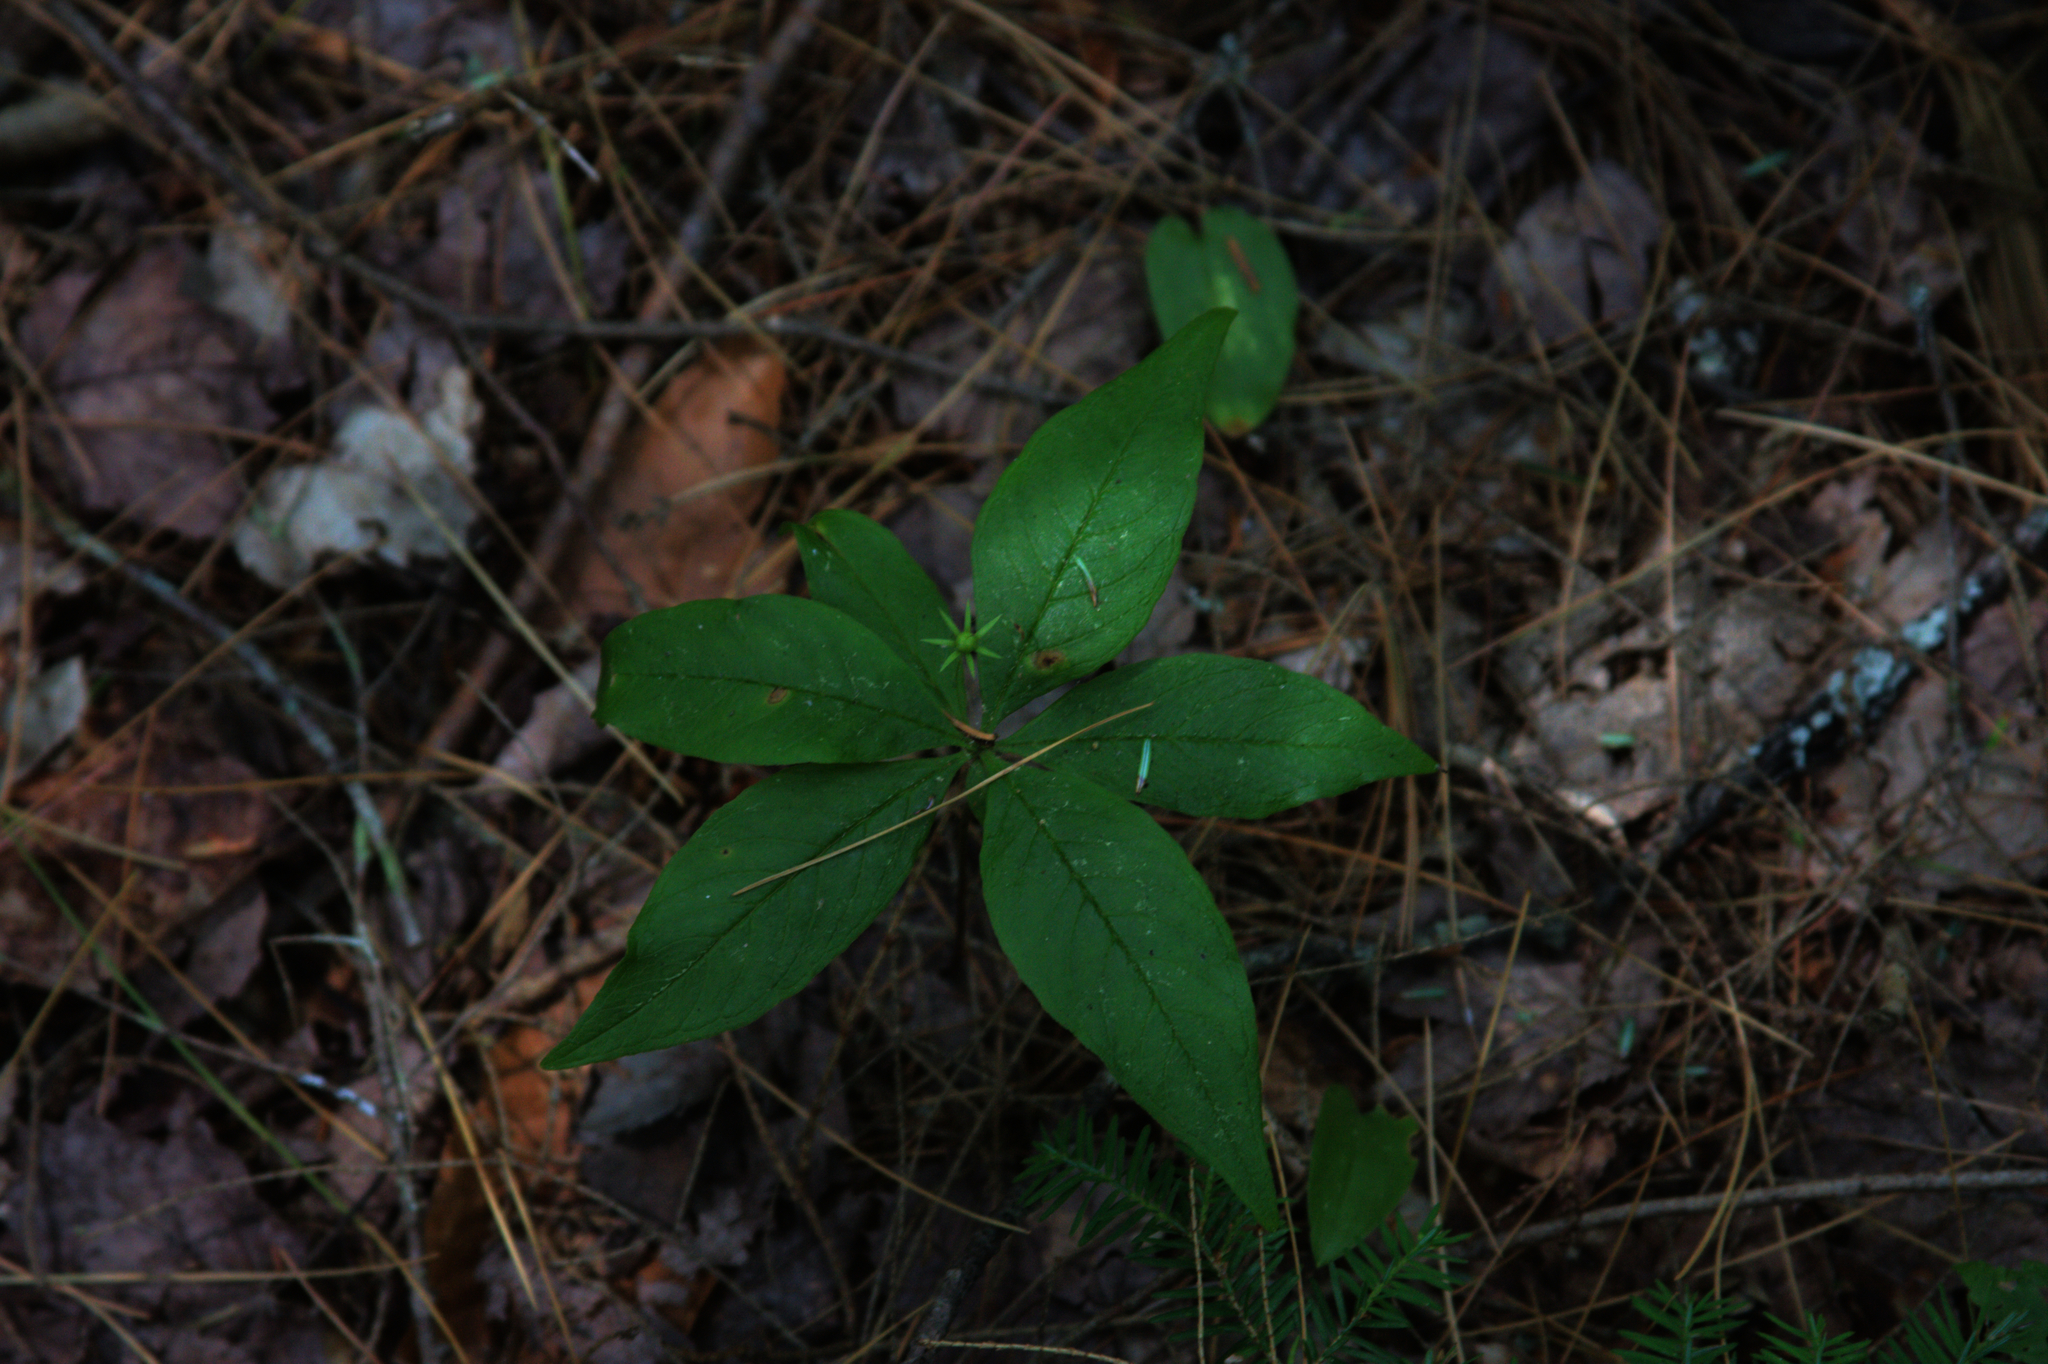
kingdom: Plantae
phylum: Tracheophyta
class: Magnoliopsida
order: Ericales
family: Primulaceae
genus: Lysimachia
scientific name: Lysimachia borealis
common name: American starflower
